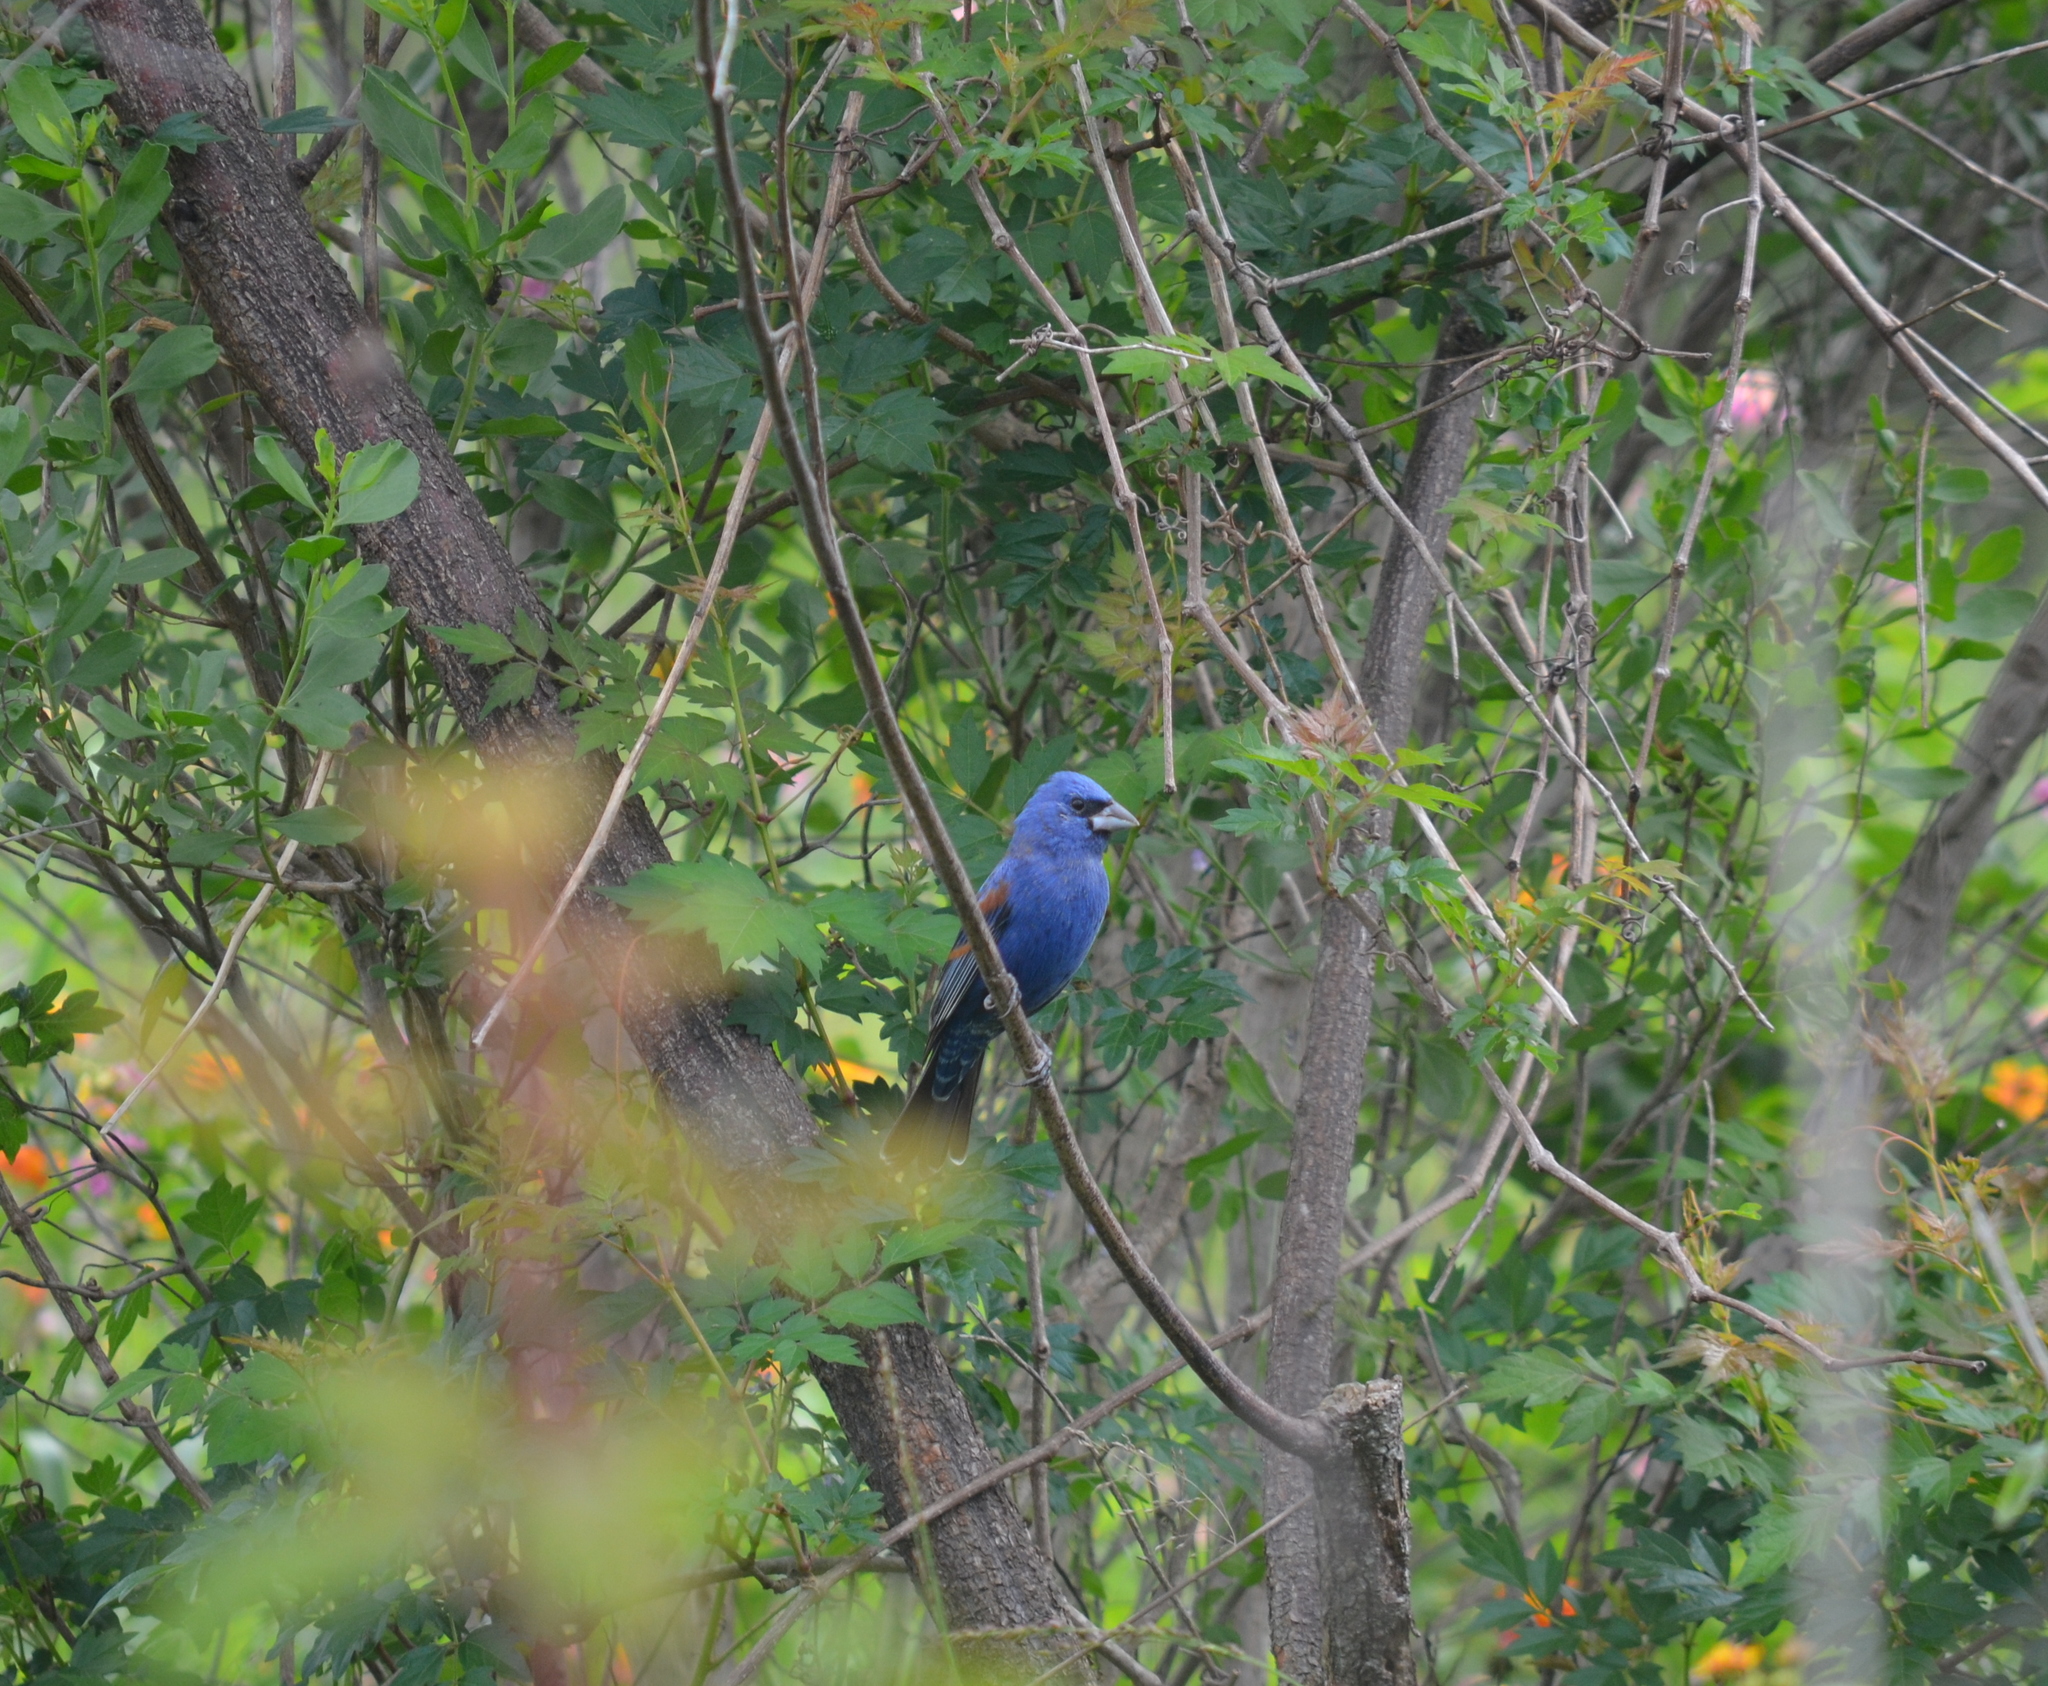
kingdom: Animalia
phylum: Chordata
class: Aves
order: Passeriformes
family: Cardinalidae
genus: Passerina
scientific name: Passerina caerulea
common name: Blue grosbeak
